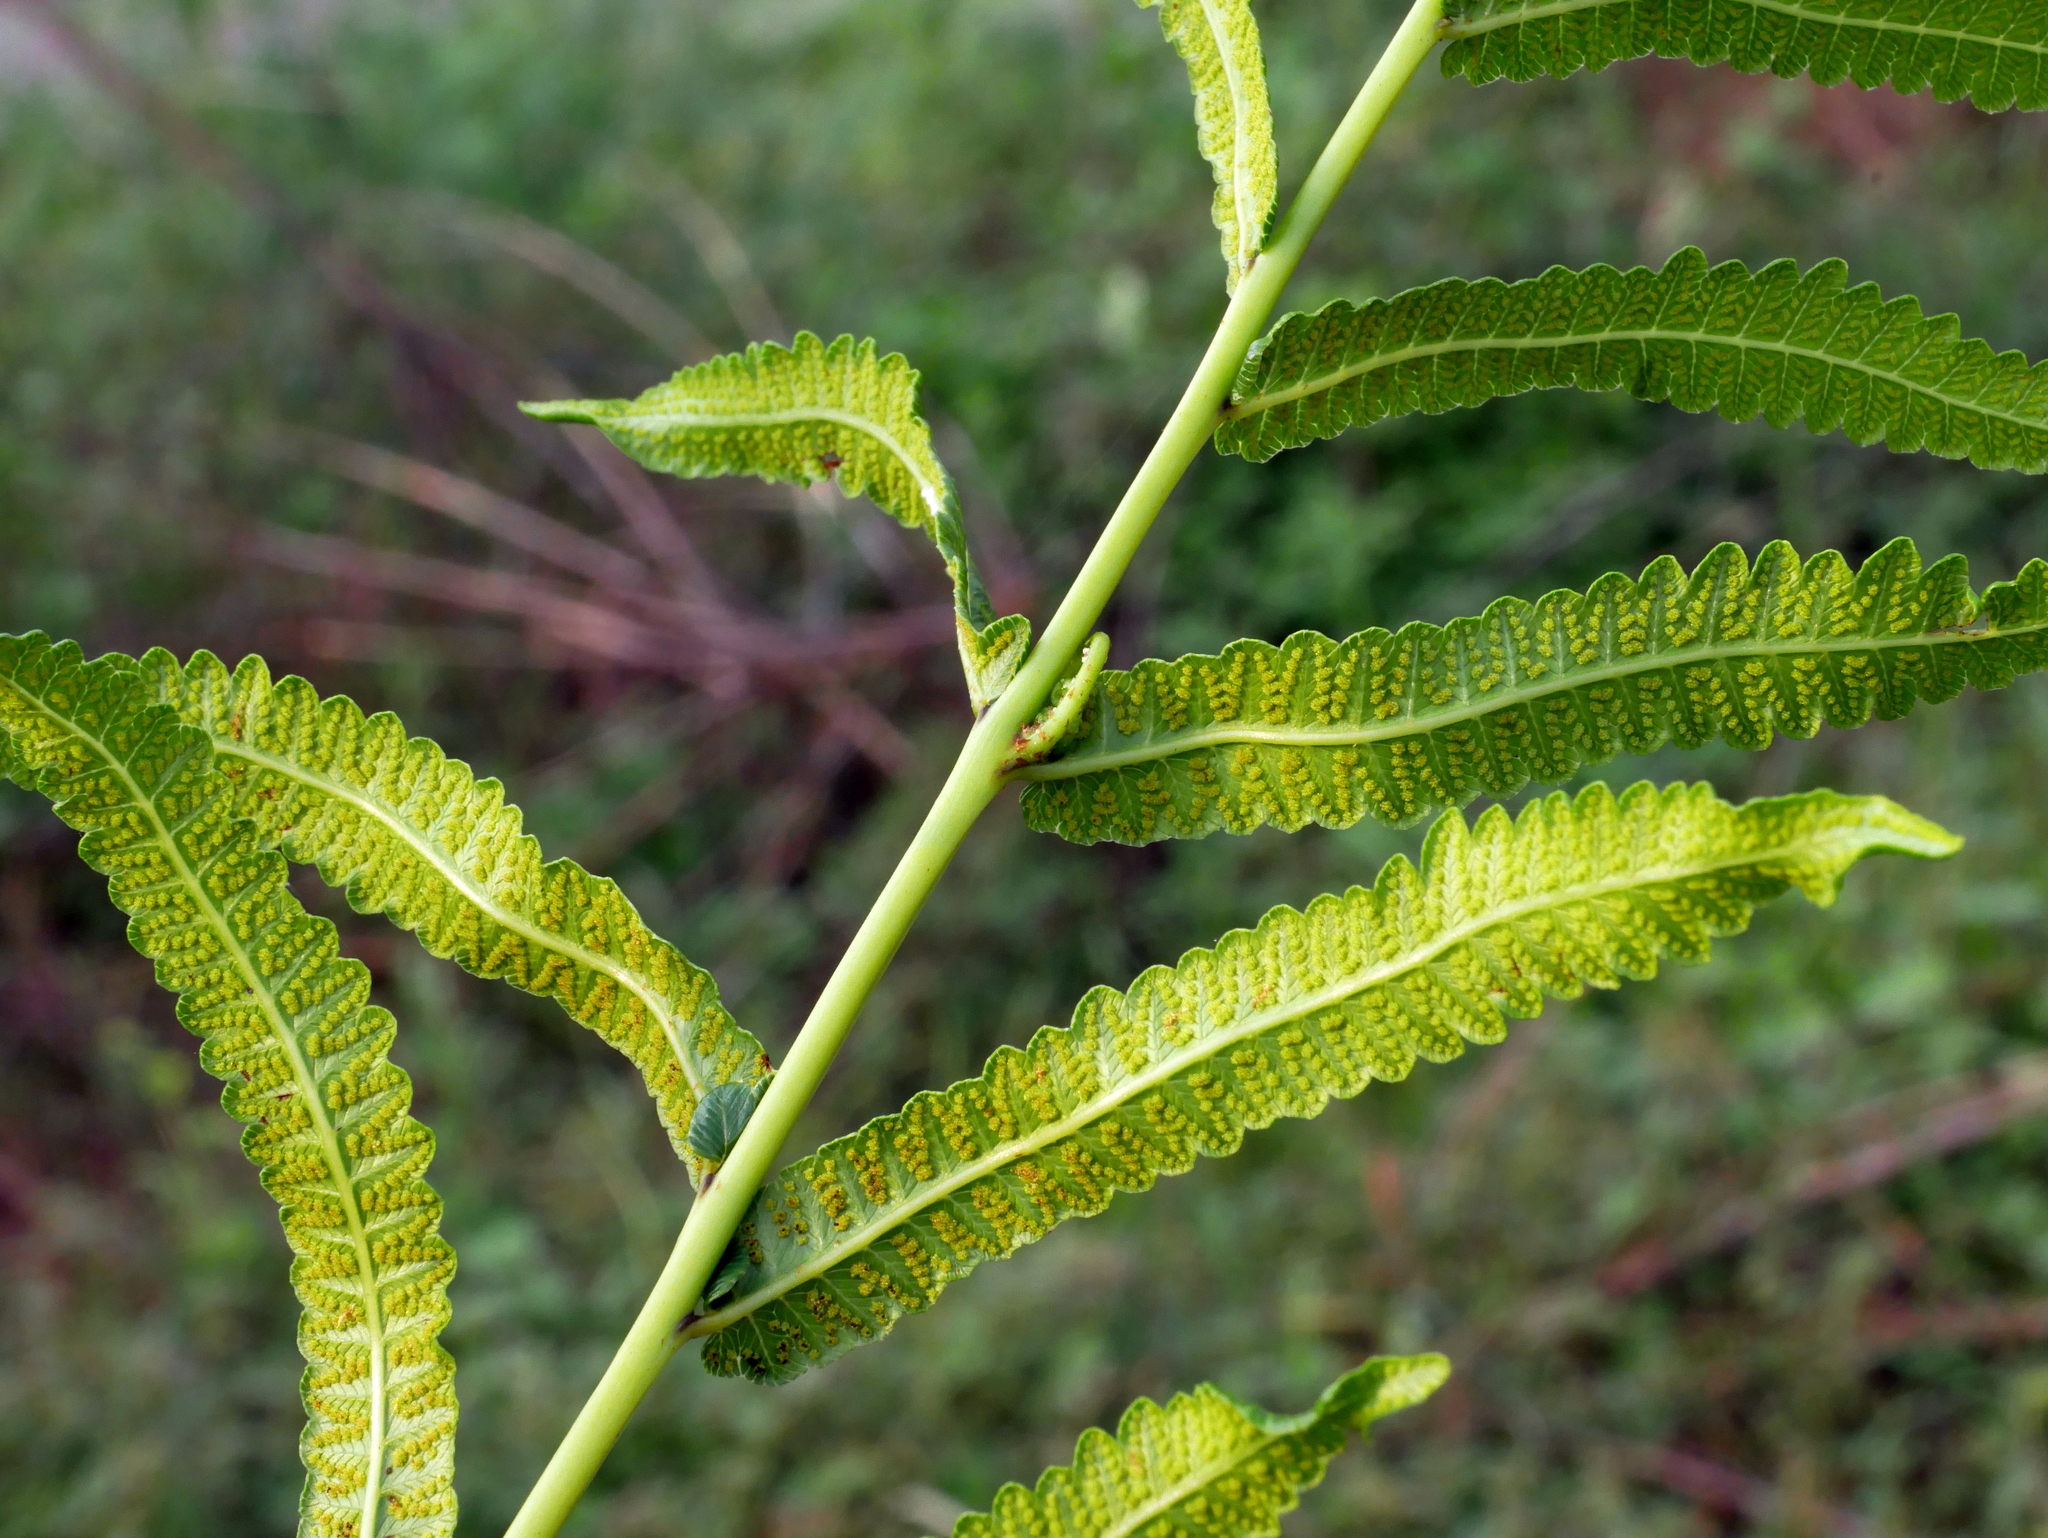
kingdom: Plantae
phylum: Tracheophyta
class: Polypodiopsida
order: Polypodiales
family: Thelypteridaceae
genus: Ampelopteris
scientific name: Ampelopteris prolifera
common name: Riverine scrambler
